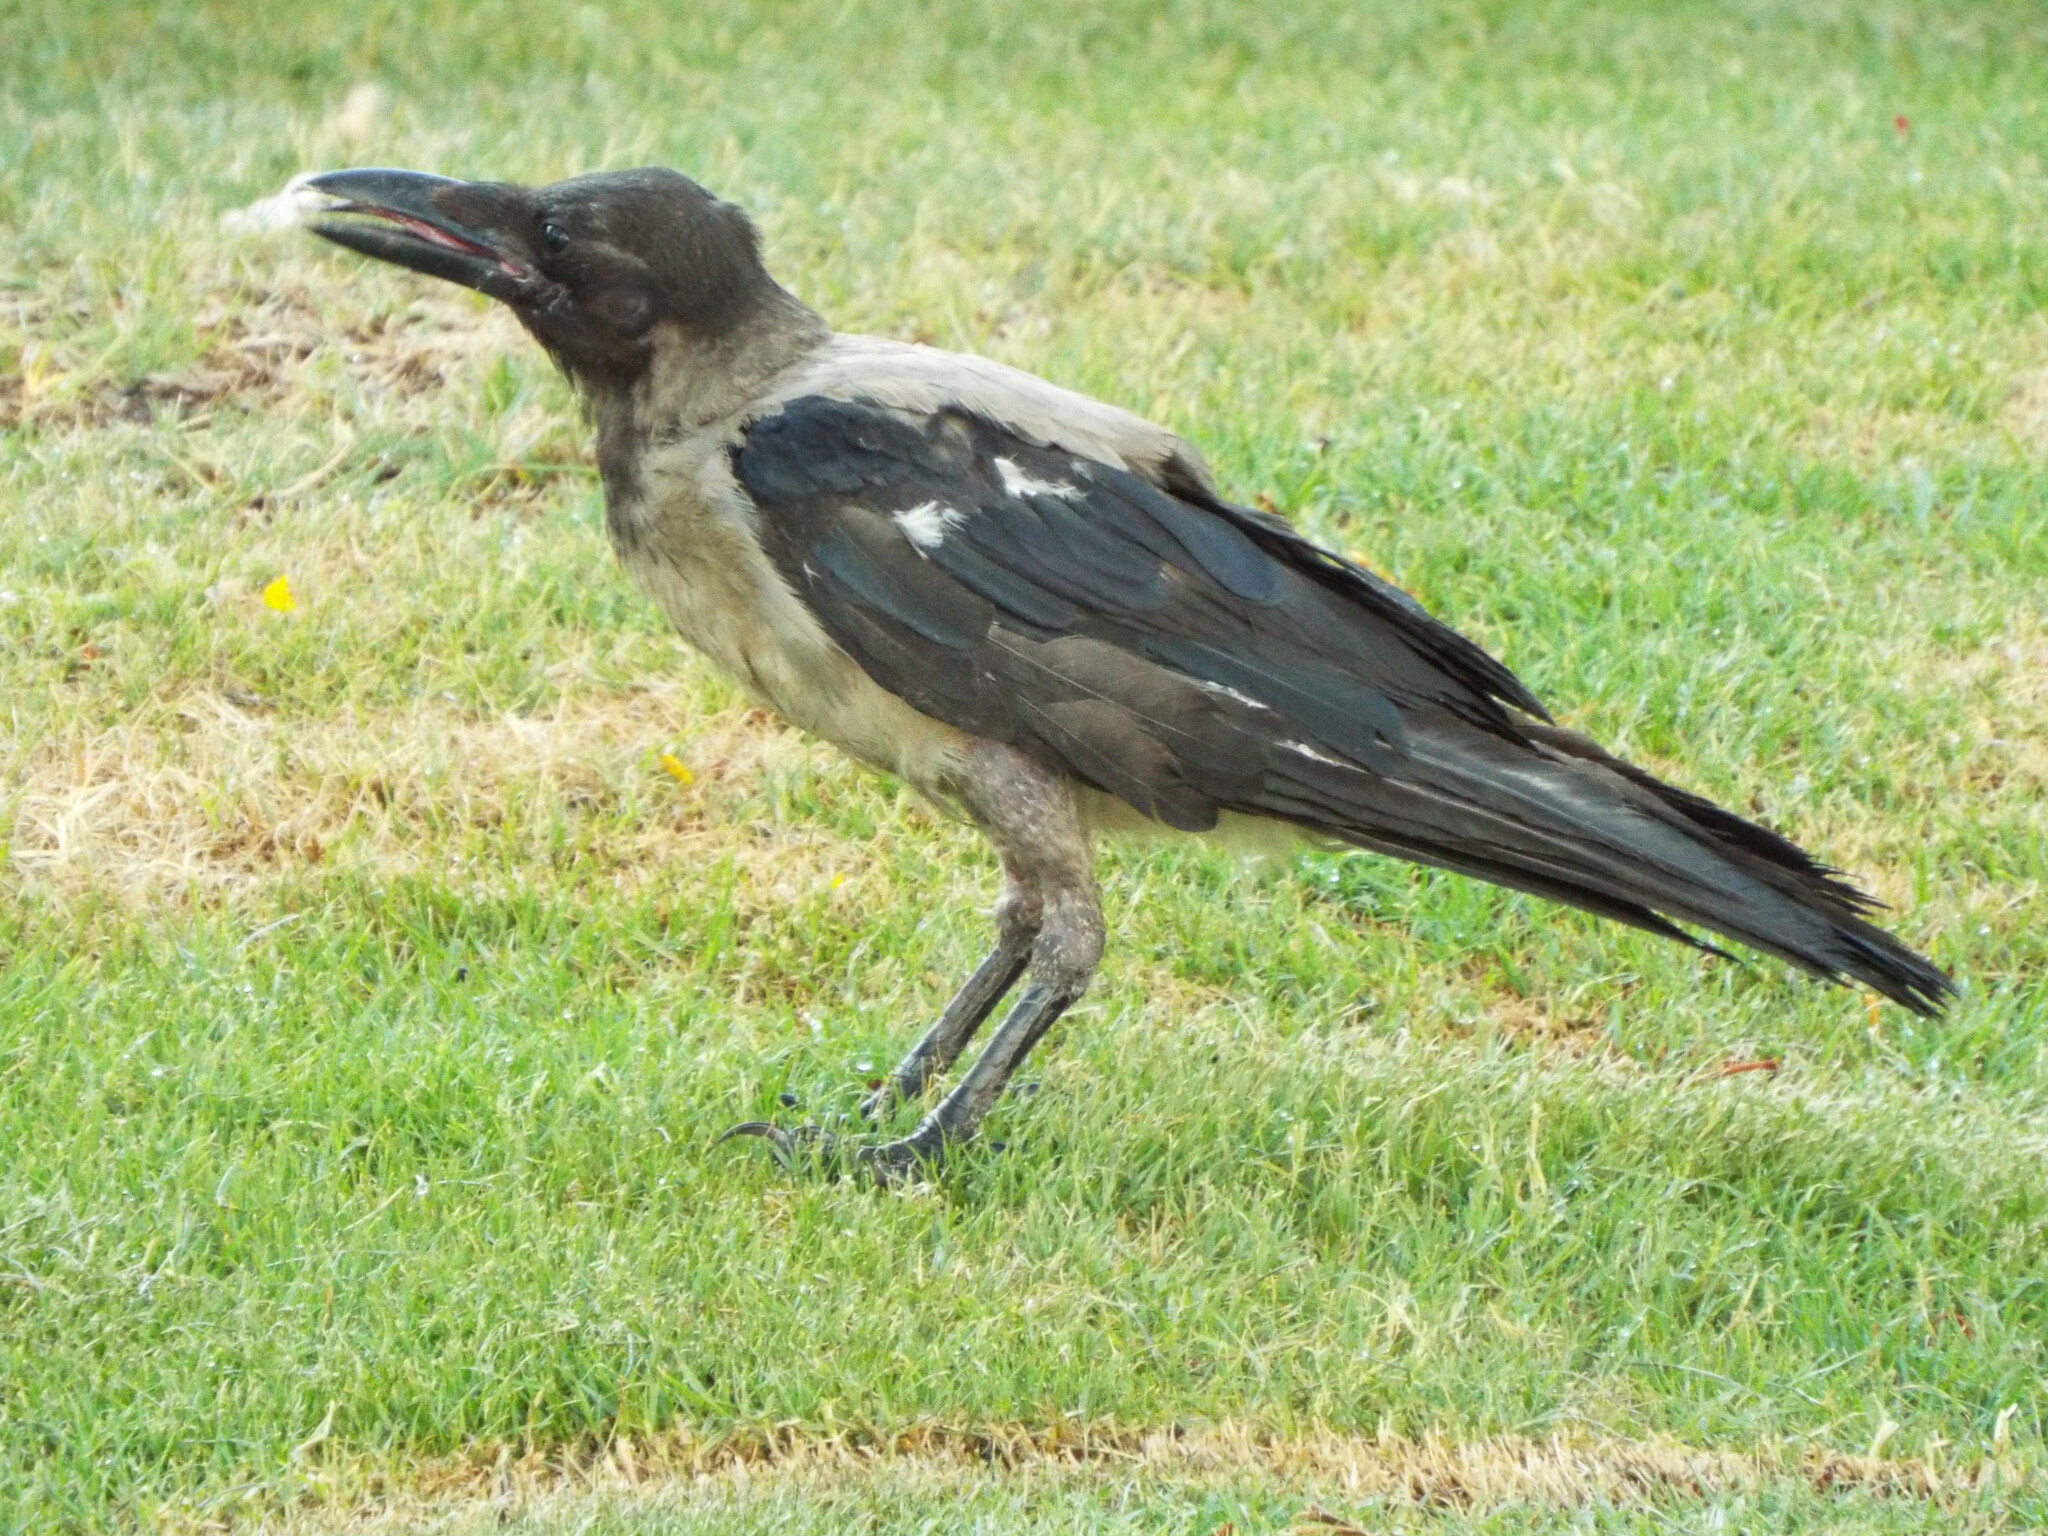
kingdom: Animalia
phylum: Chordata
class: Aves
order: Passeriformes
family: Corvidae
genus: Corvus
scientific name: Corvus cornix
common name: Hooded crow
